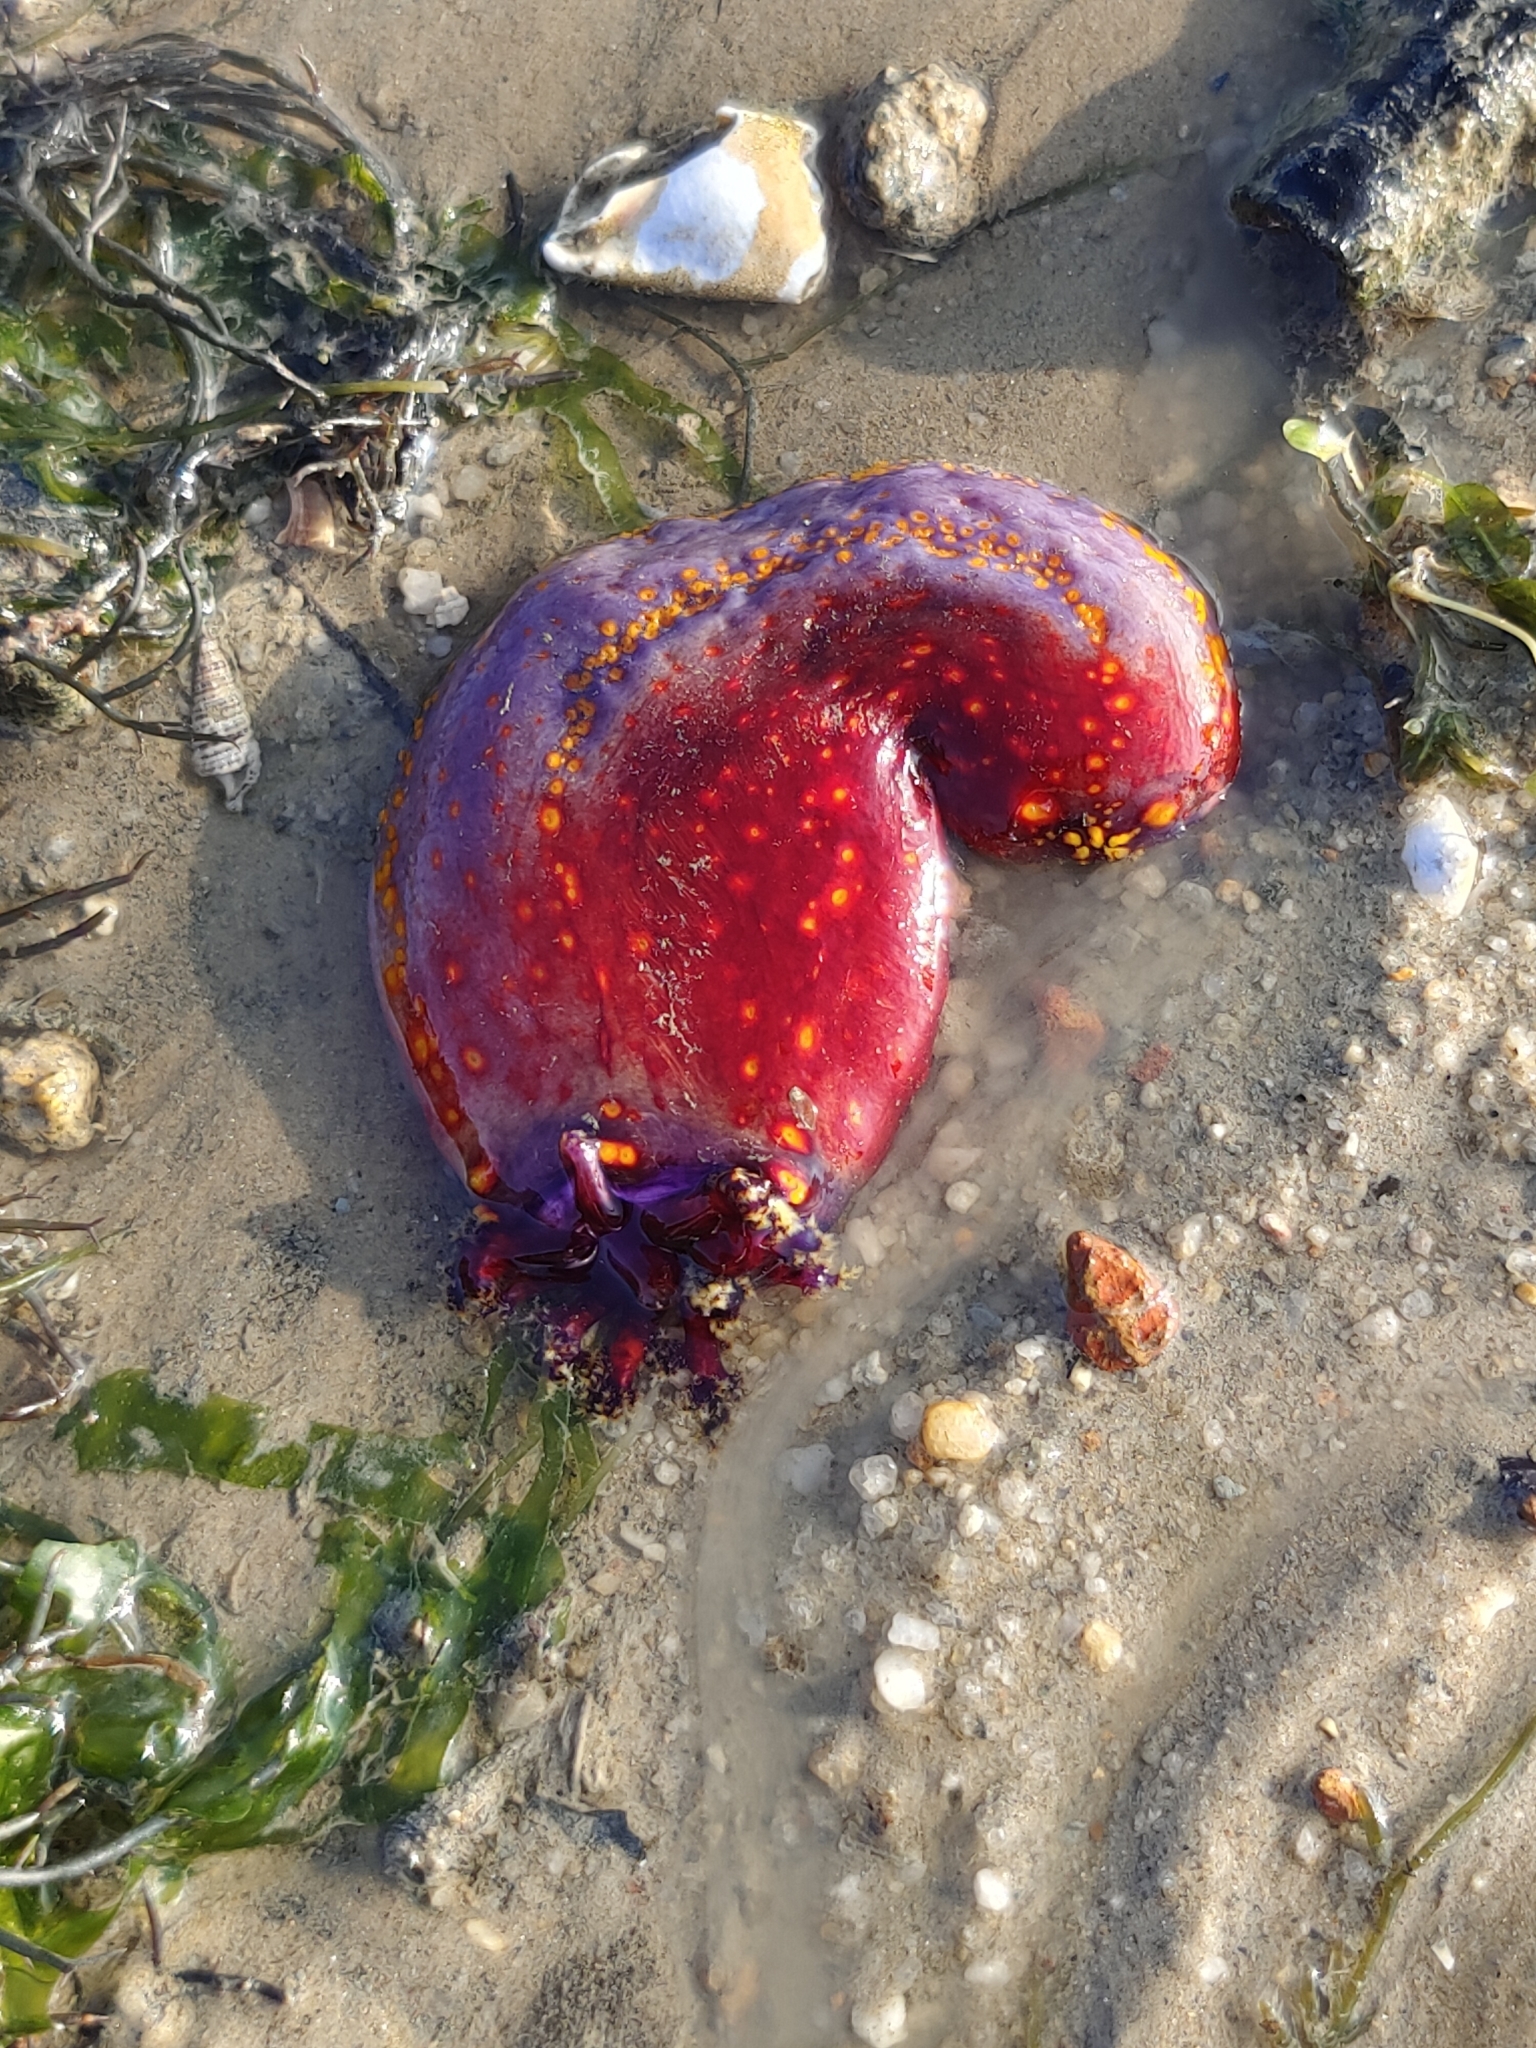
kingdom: Animalia
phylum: Echinodermata
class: Holothuroidea
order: Dendrochirotida
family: Cucumariidae
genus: Pseudocolochirus
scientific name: Pseudocolochirus violaceus
